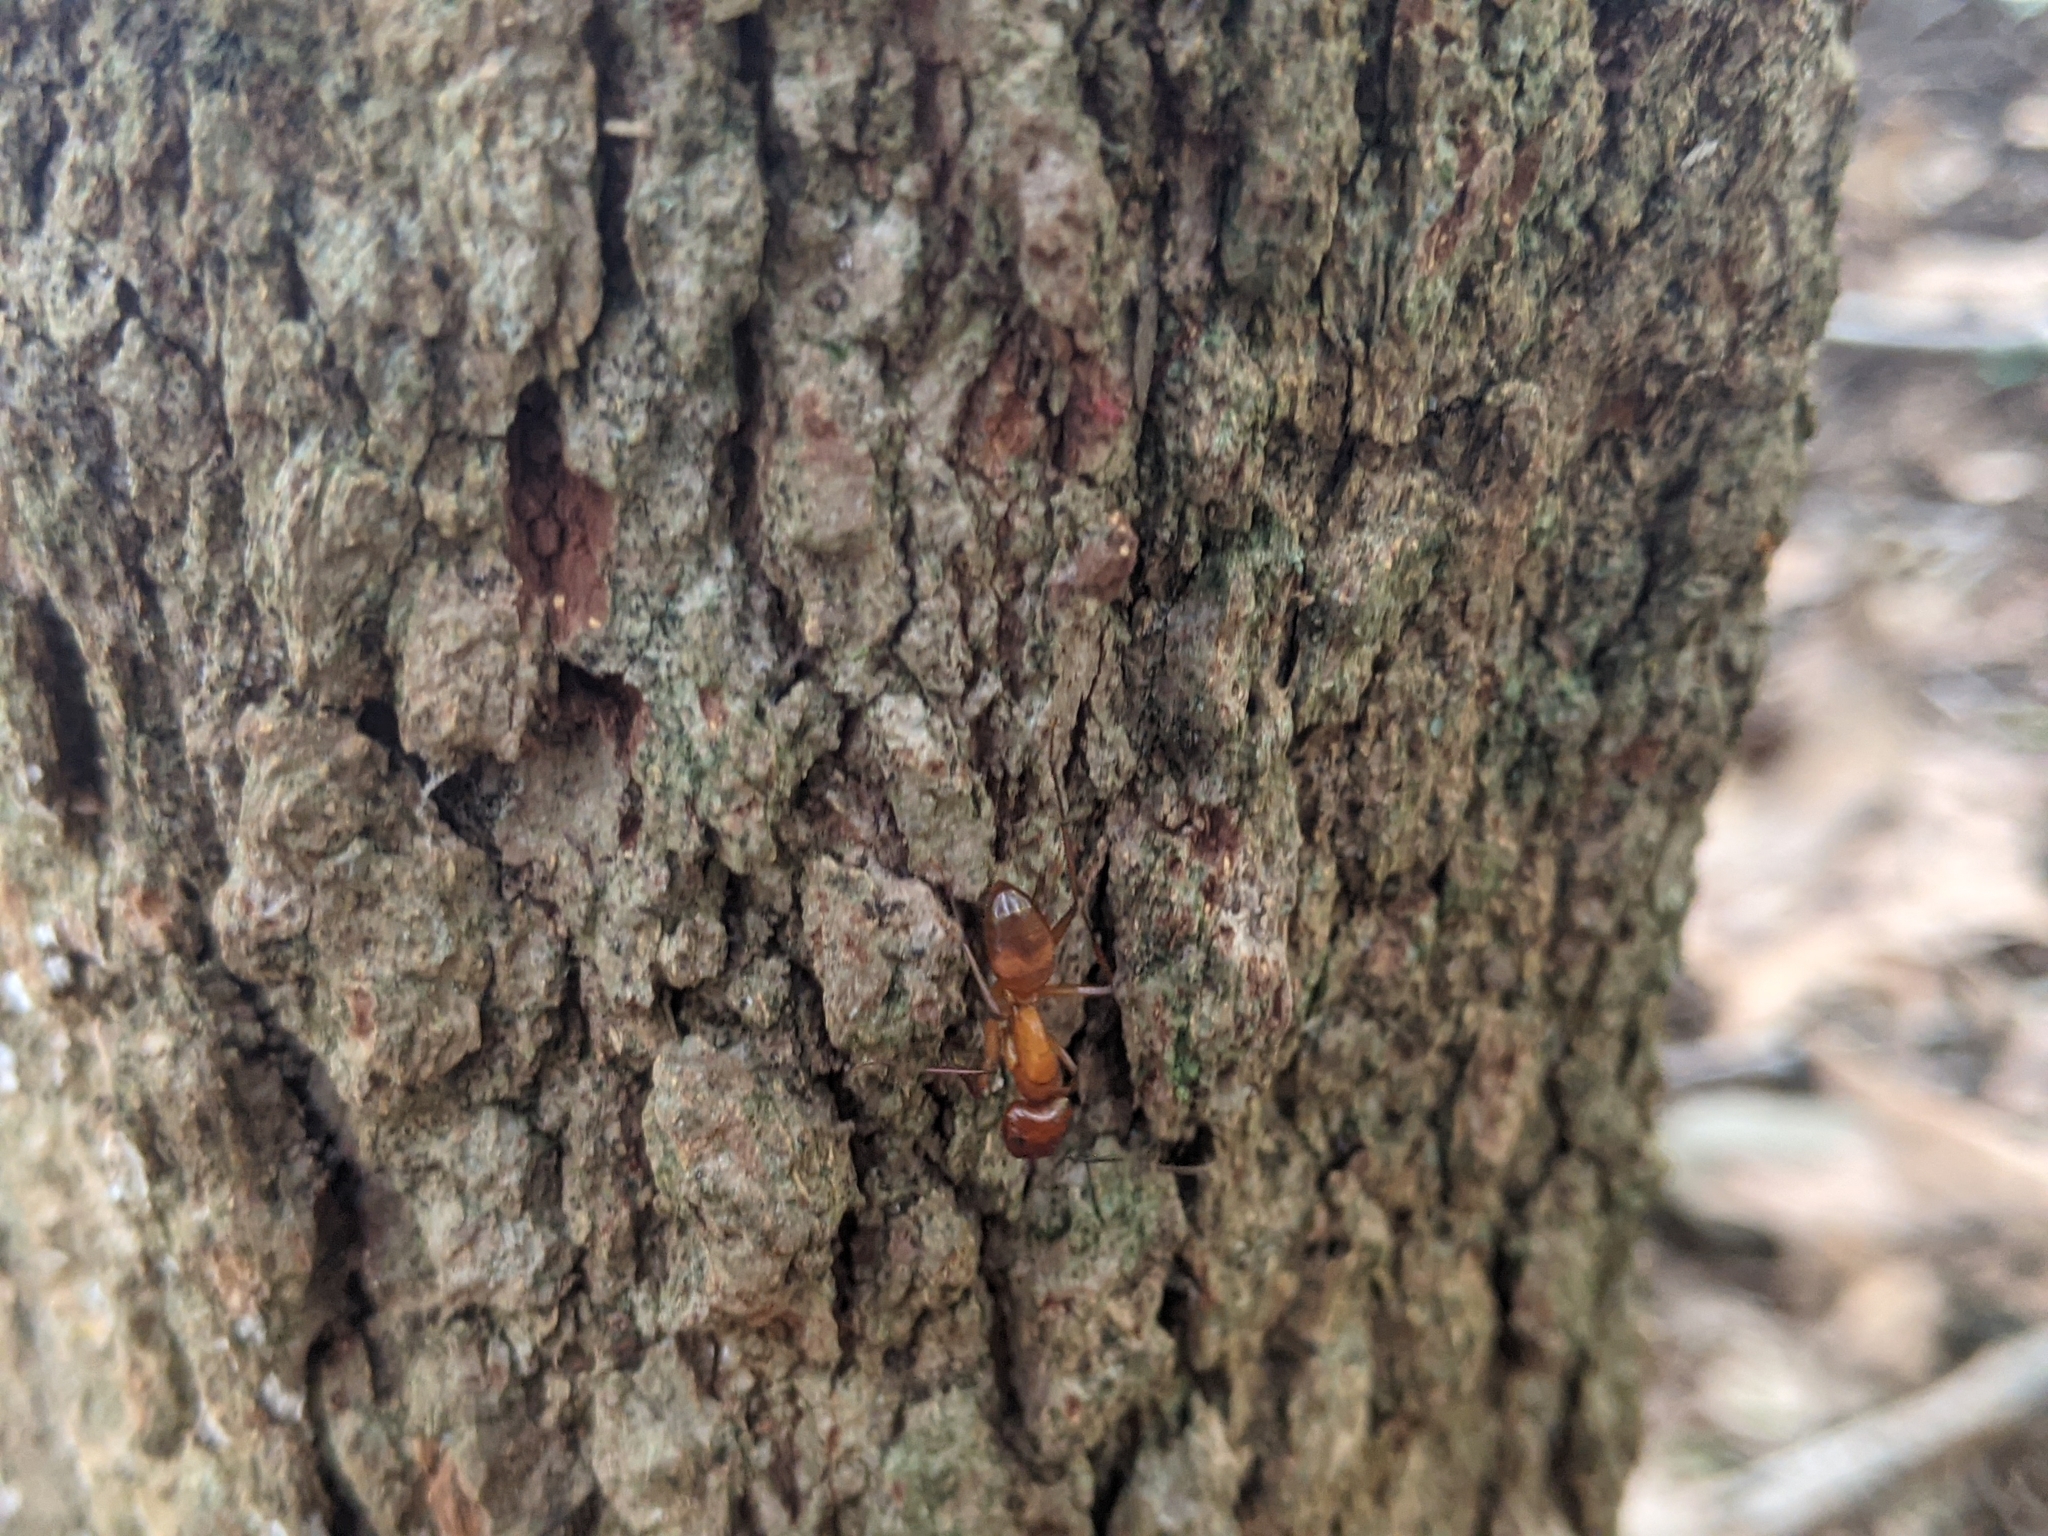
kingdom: Animalia
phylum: Arthropoda
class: Insecta
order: Hymenoptera
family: Formicidae
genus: Camponotus
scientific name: Camponotus castaneus
